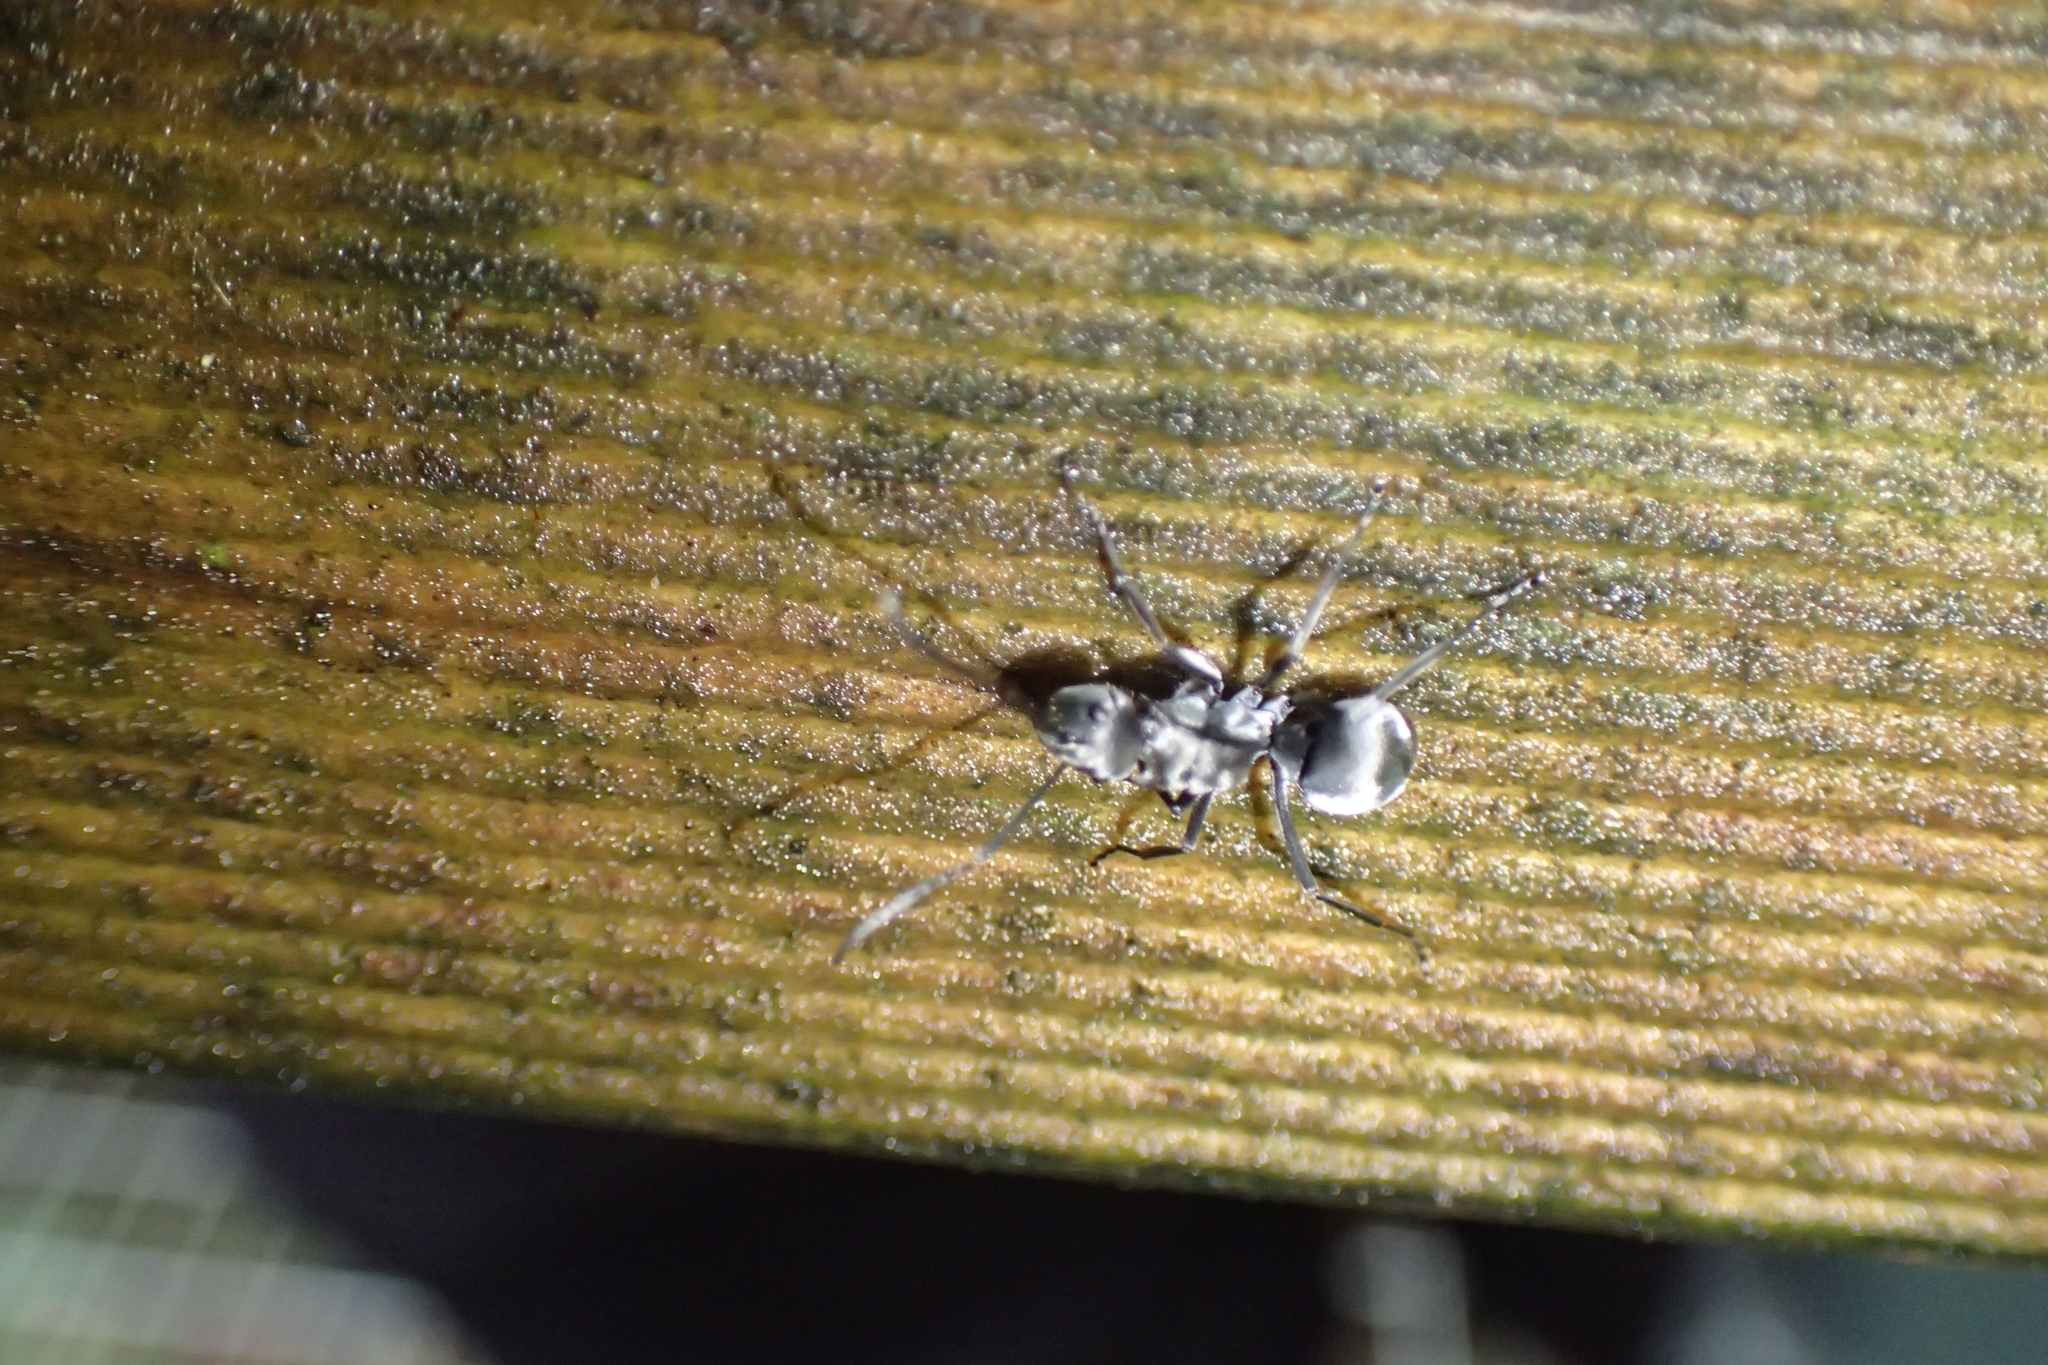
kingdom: Animalia
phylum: Arthropoda
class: Insecta
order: Hymenoptera
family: Formicidae
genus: Polyrhachis
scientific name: Polyrhachis foreli
